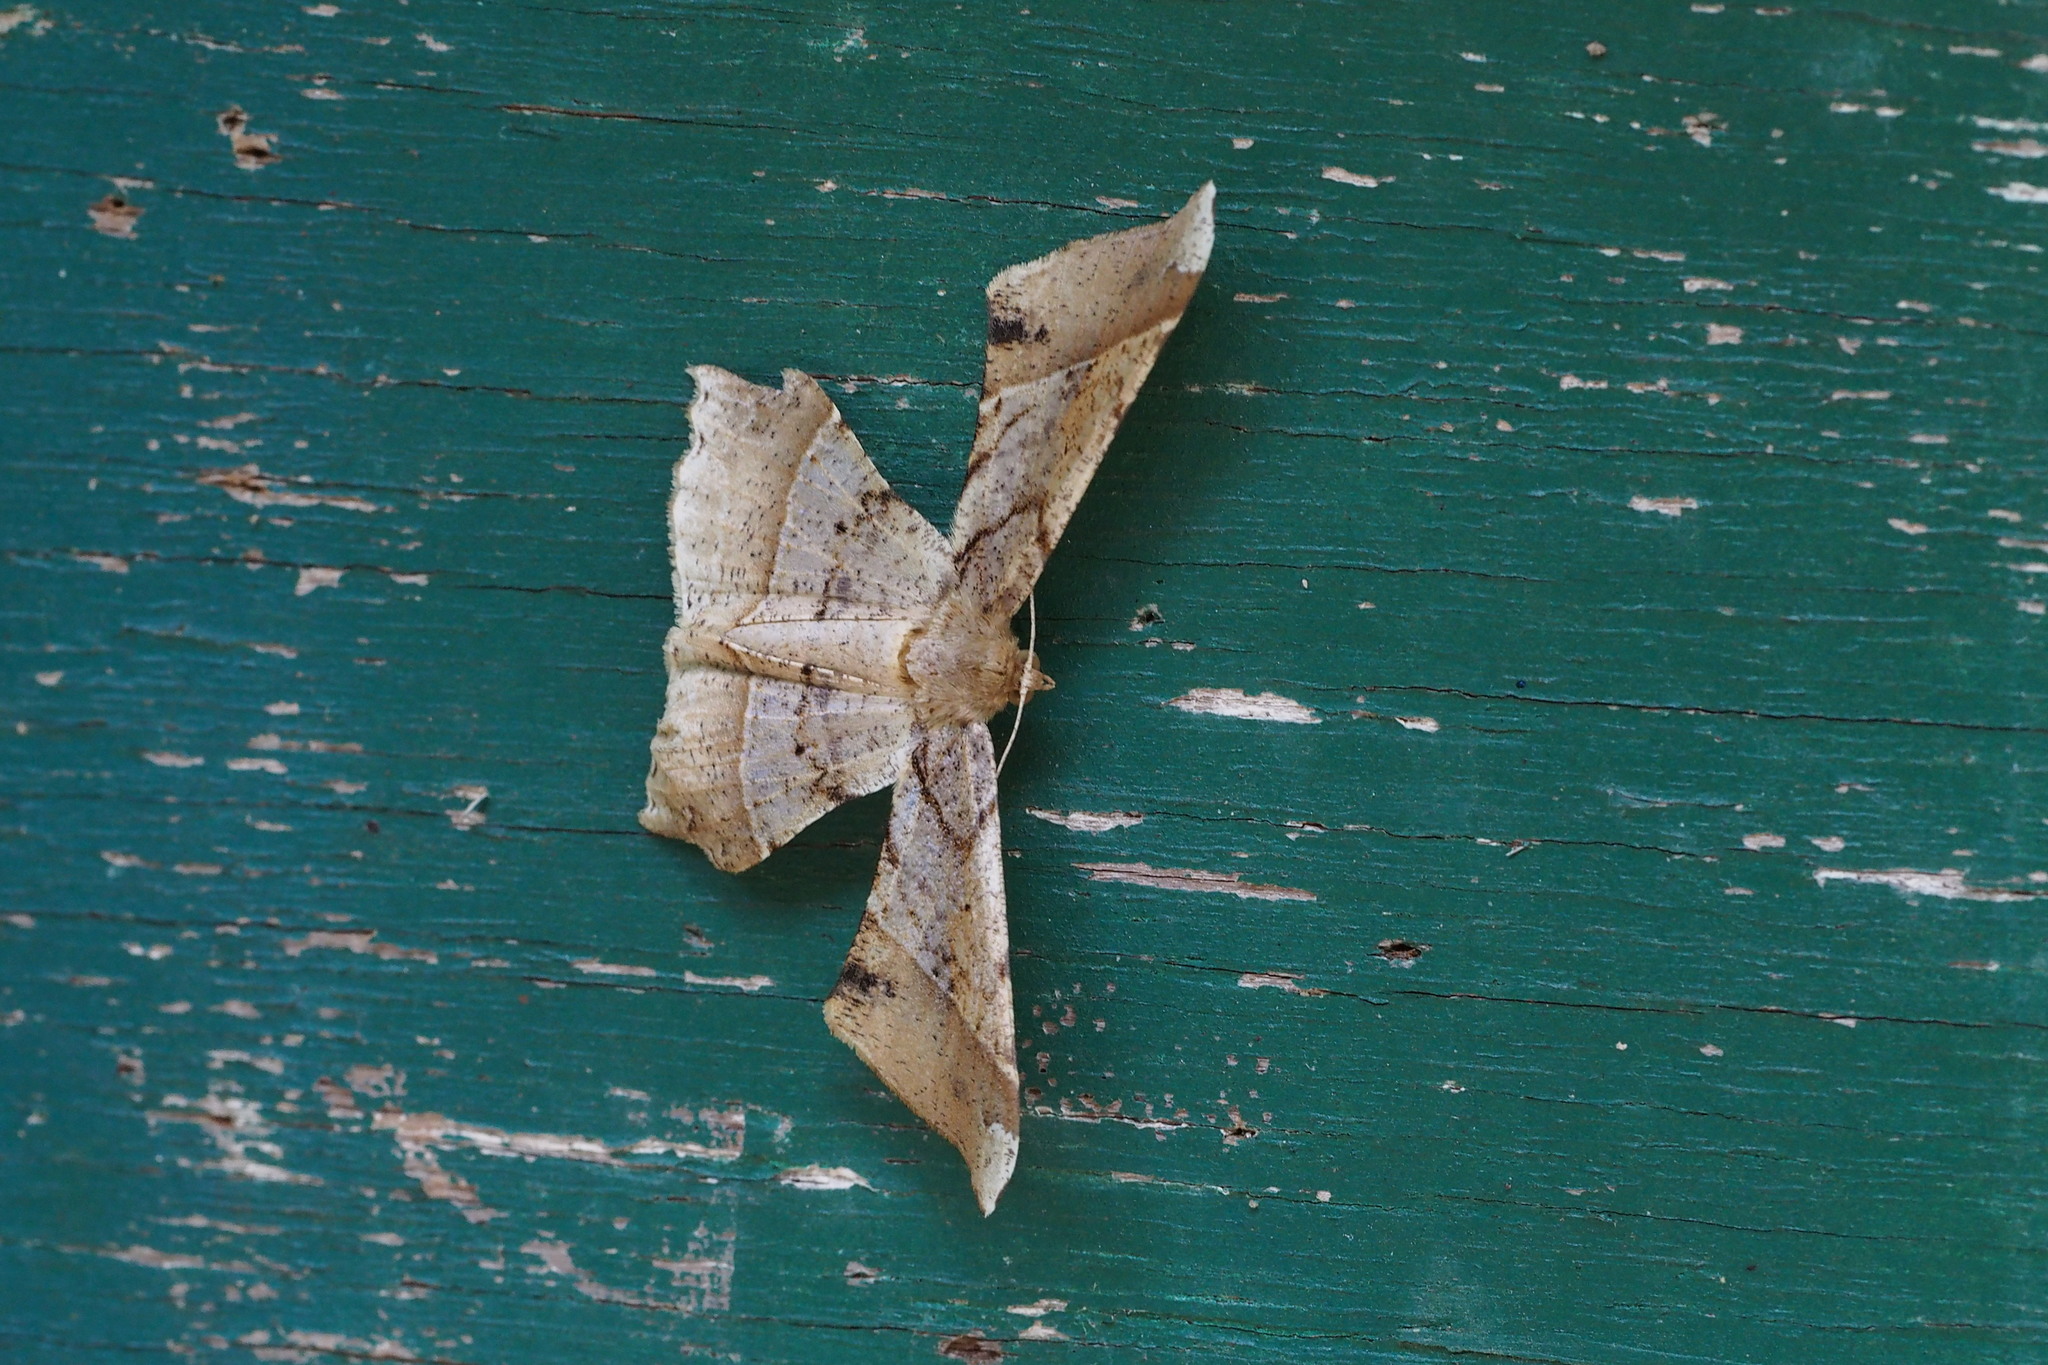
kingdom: Animalia
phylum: Arthropoda
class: Insecta
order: Lepidoptera
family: Geometridae
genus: Krananda
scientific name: Krananda latimarginaria
